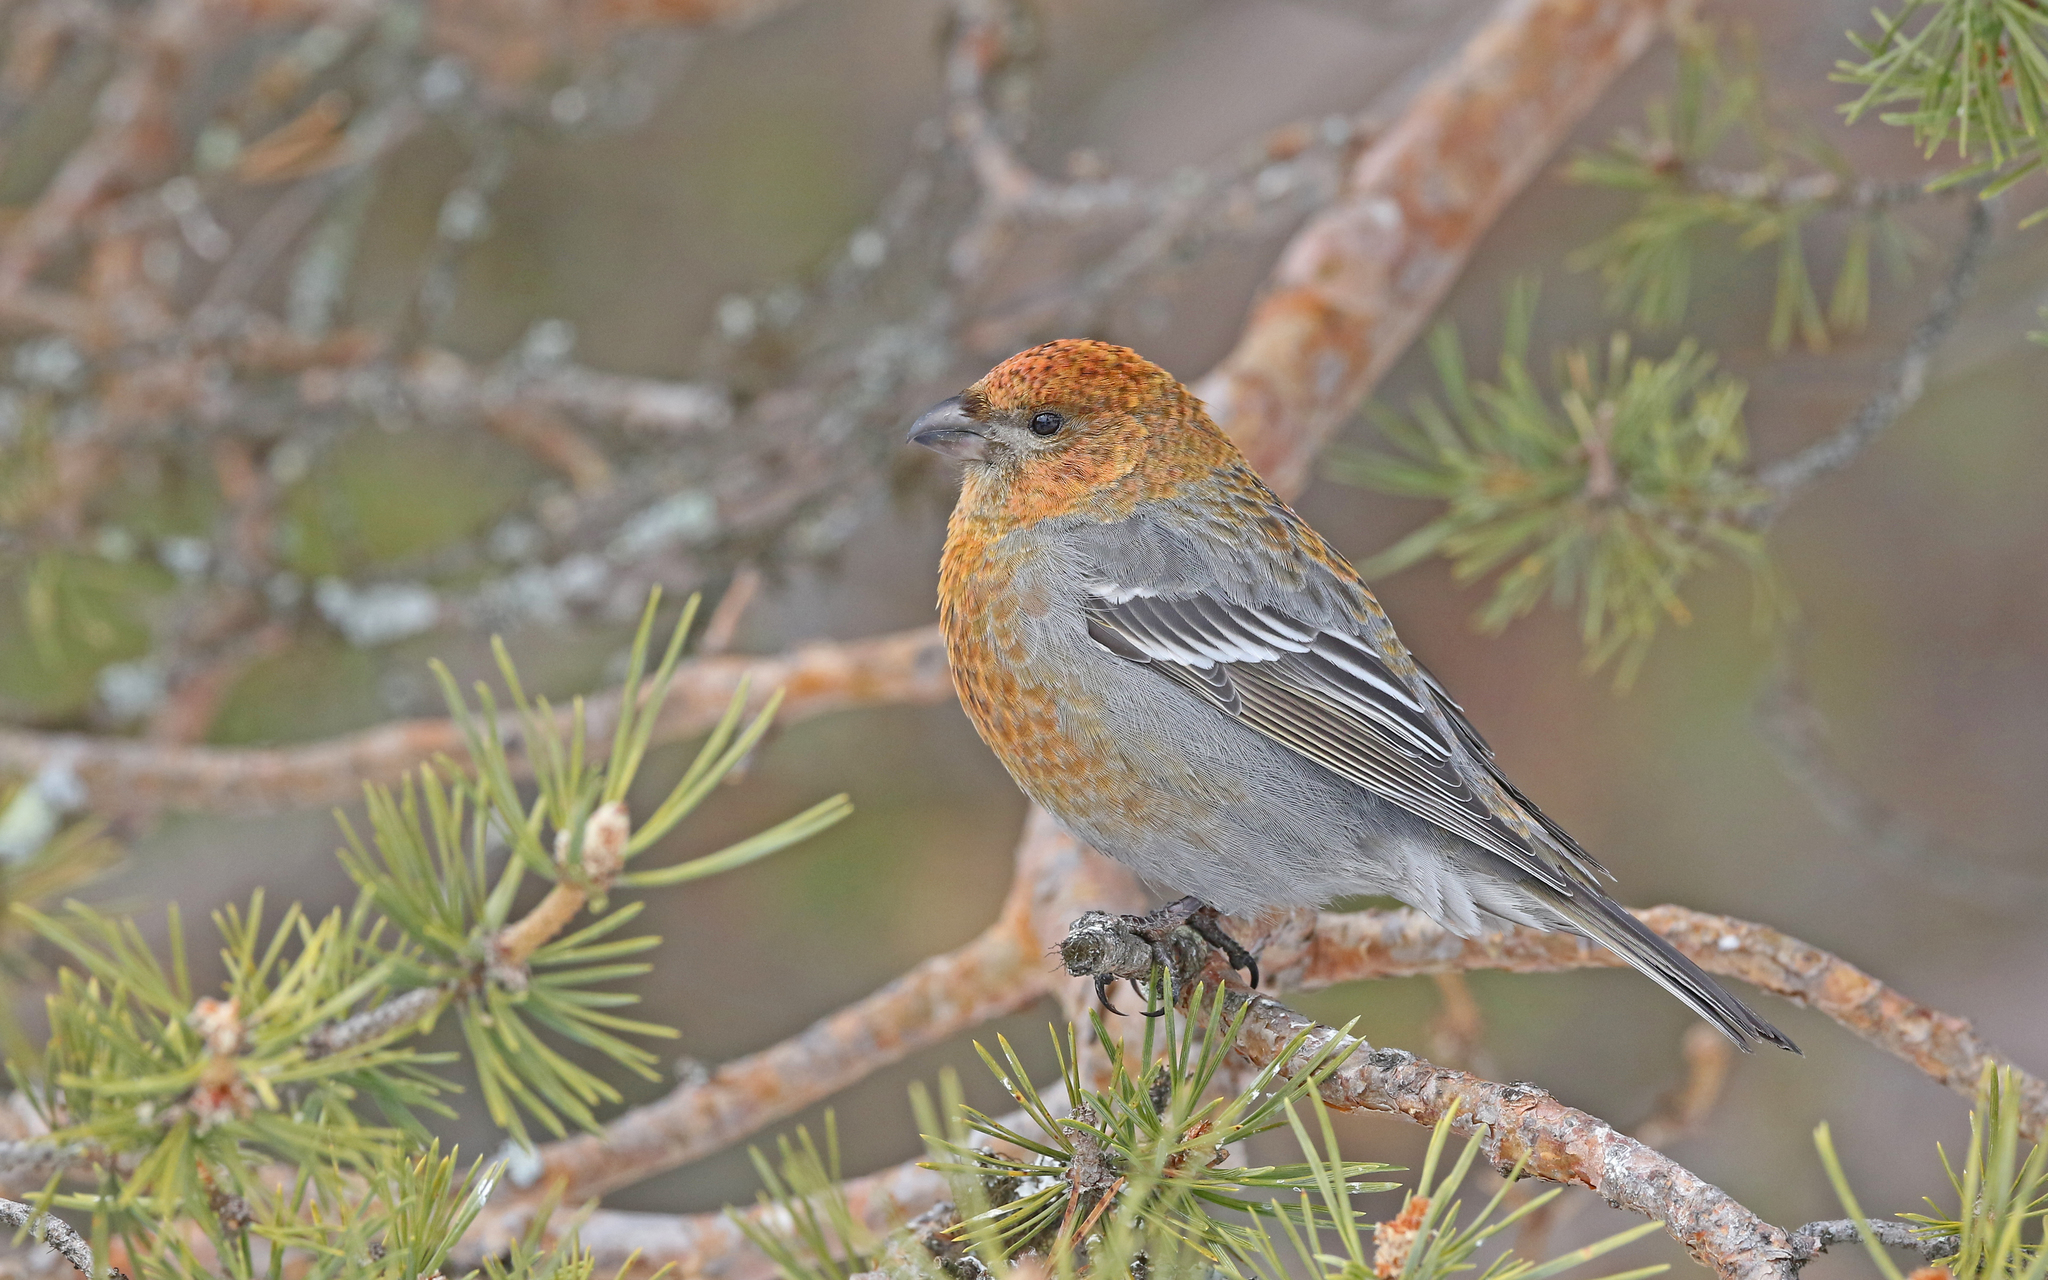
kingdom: Animalia
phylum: Chordata
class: Aves
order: Passeriformes
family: Fringillidae
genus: Pinicola
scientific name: Pinicola enucleator
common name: Pine grosbeak
